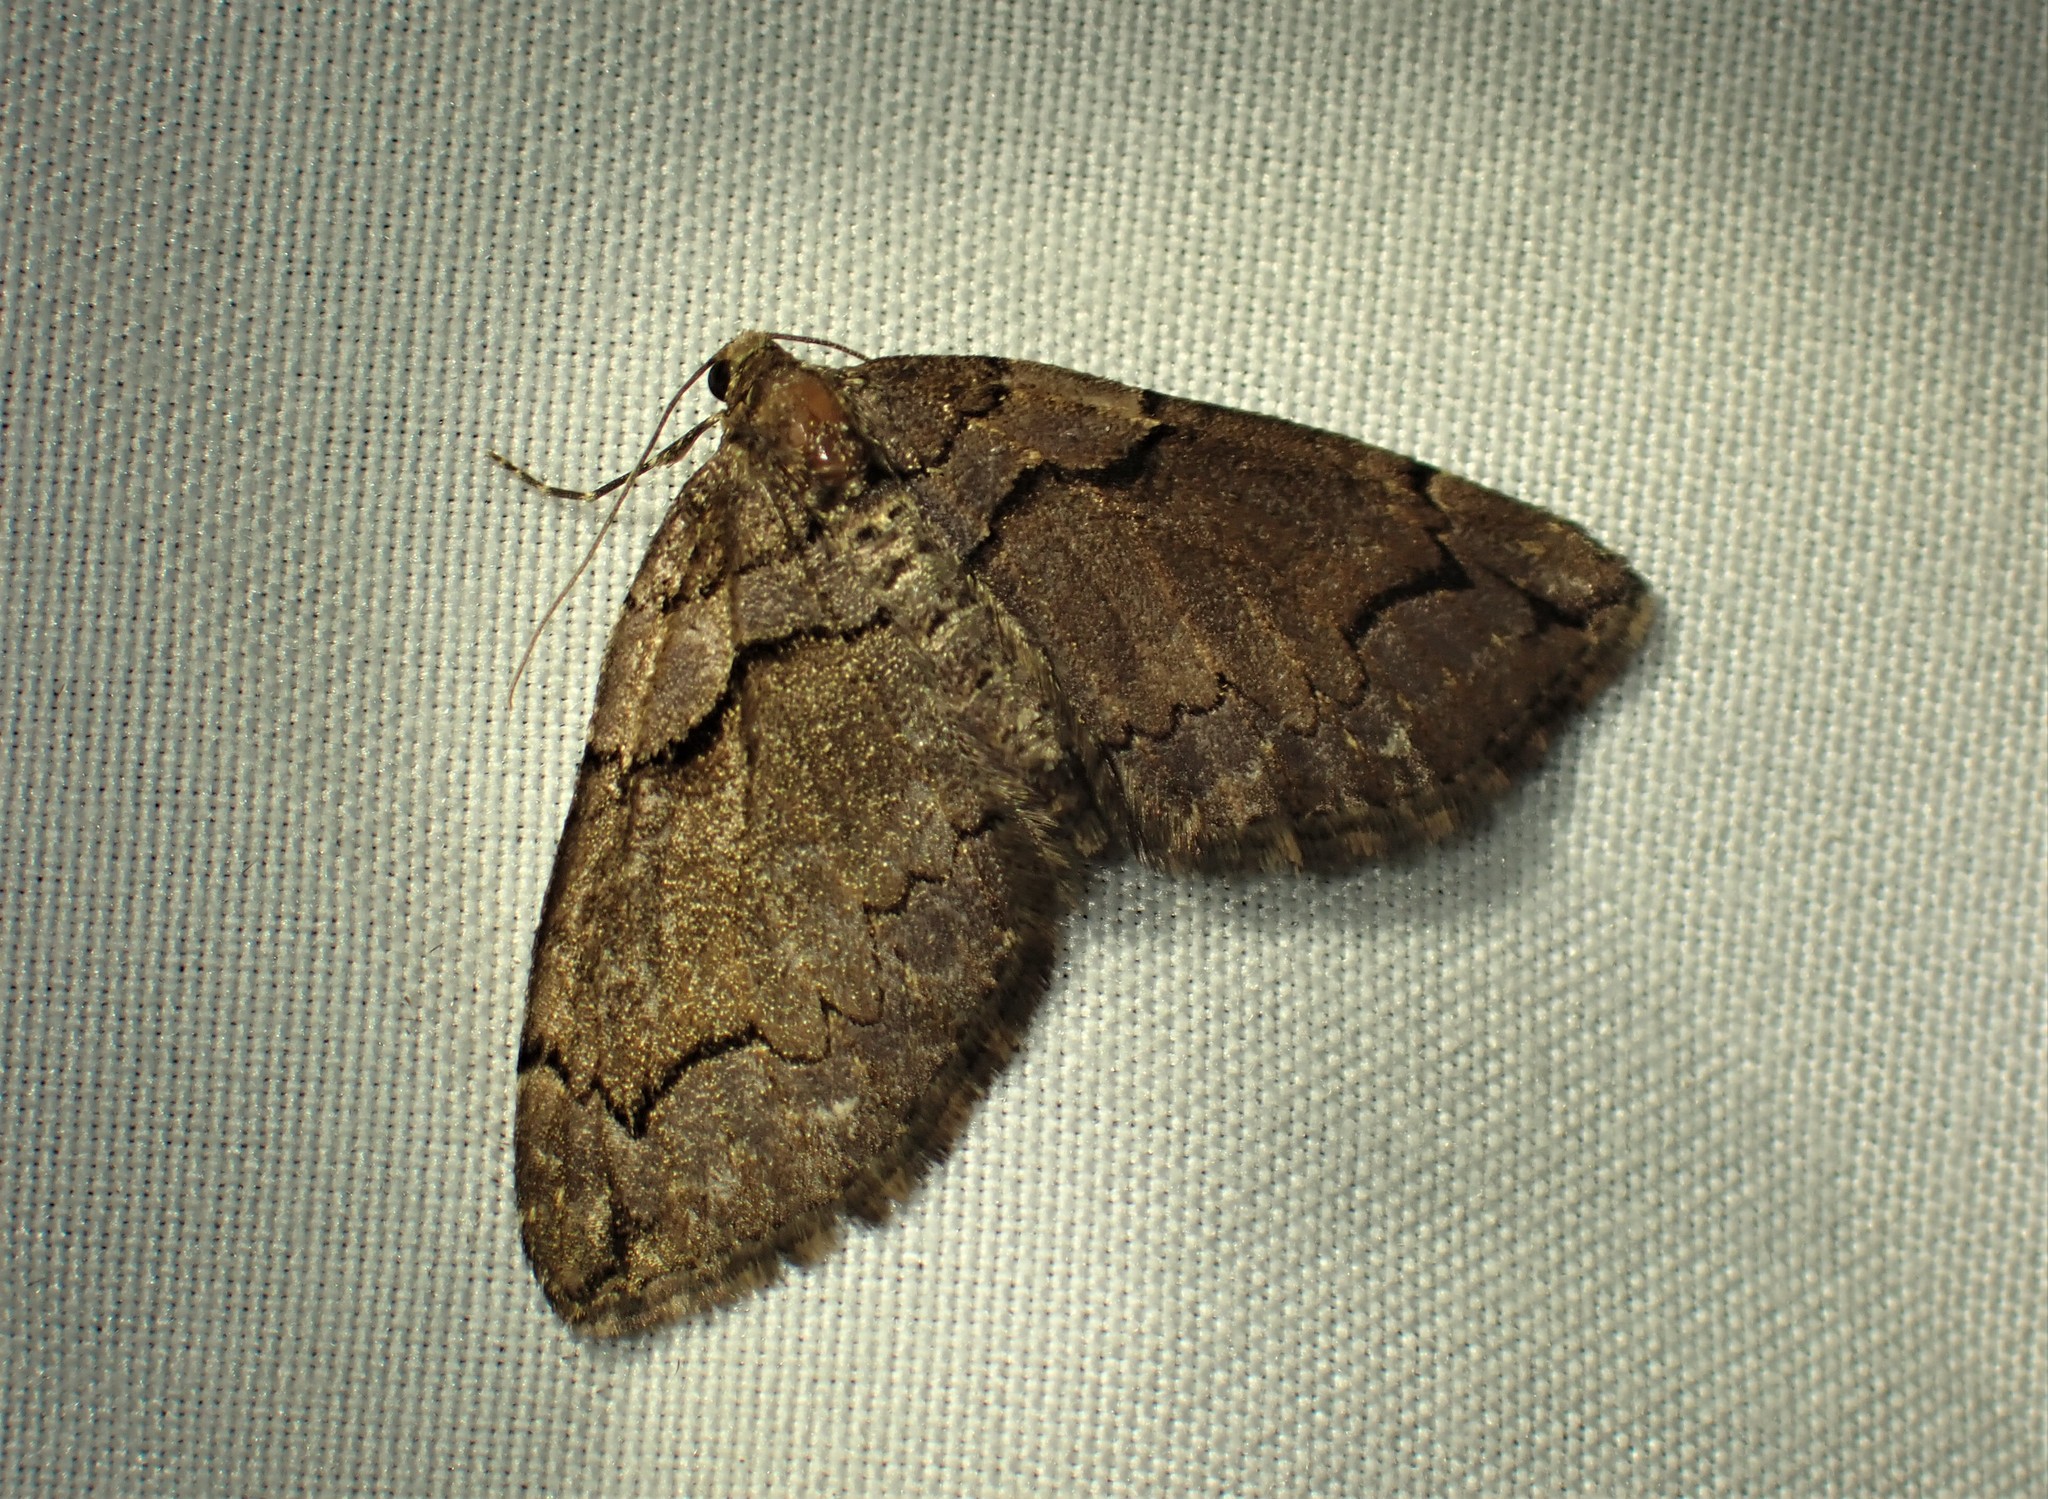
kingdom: Animalia
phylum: Arthropoda
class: Insecta
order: Lepidoptera
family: Geometridae
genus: Anticlea
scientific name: Anticlea vasiliata
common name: Variable carpet
